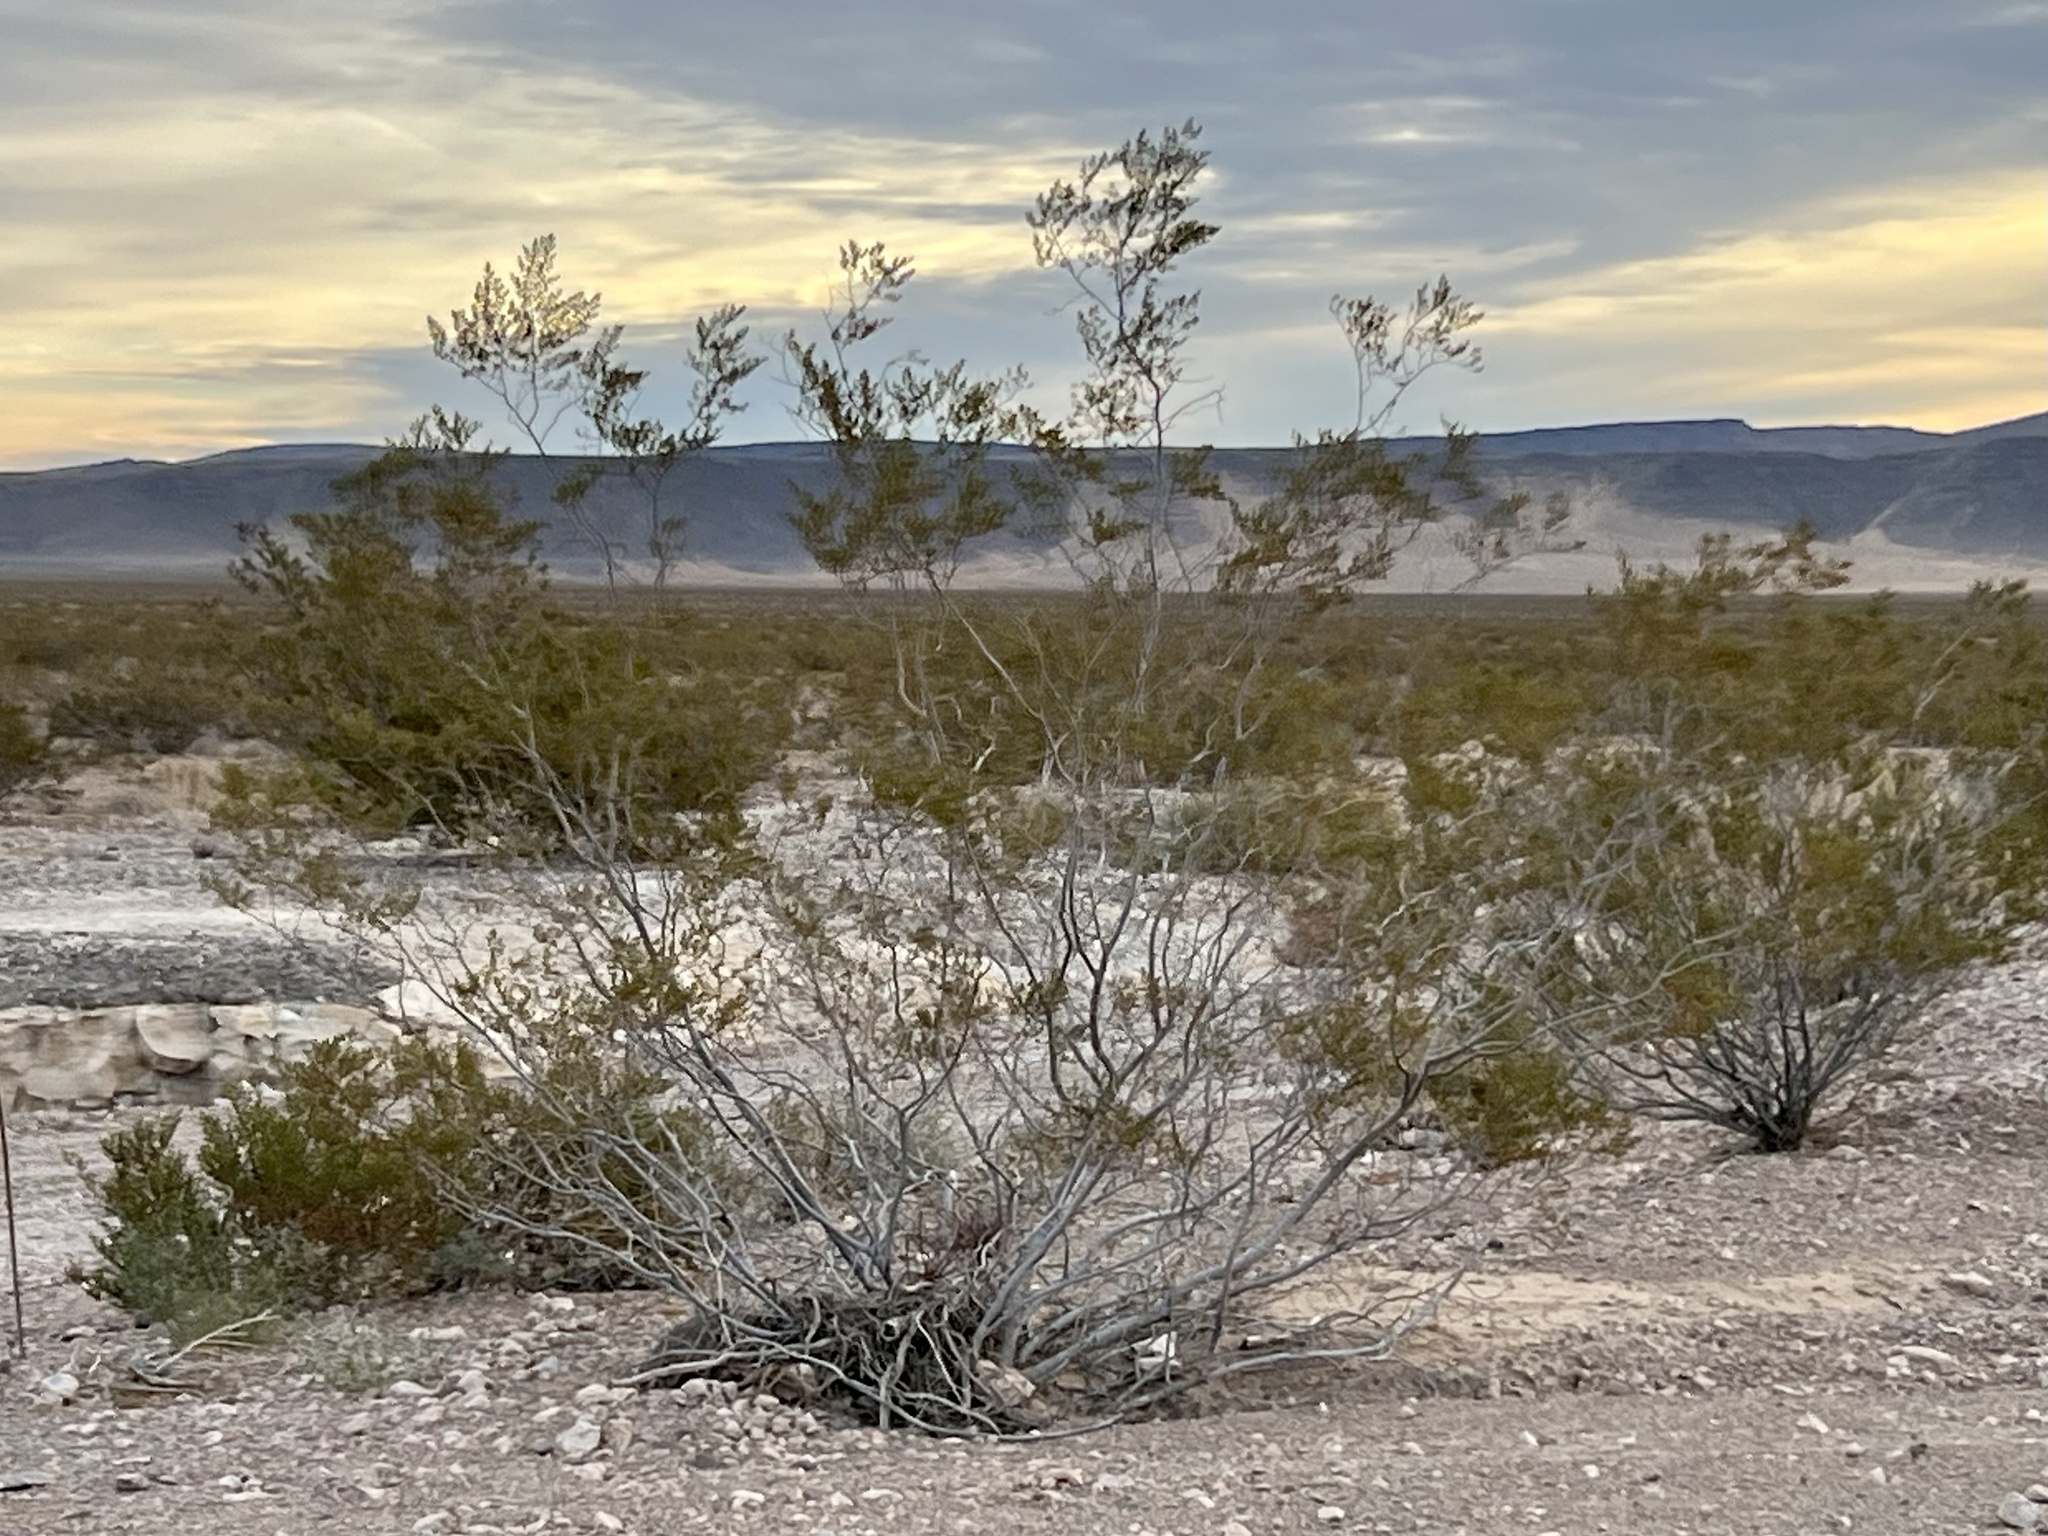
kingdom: Plantae
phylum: Tracheophyta
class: Magnoliopsida
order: Zygophyllales
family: Zygophyllaceae
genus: Larrea
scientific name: Larrea tridentata
